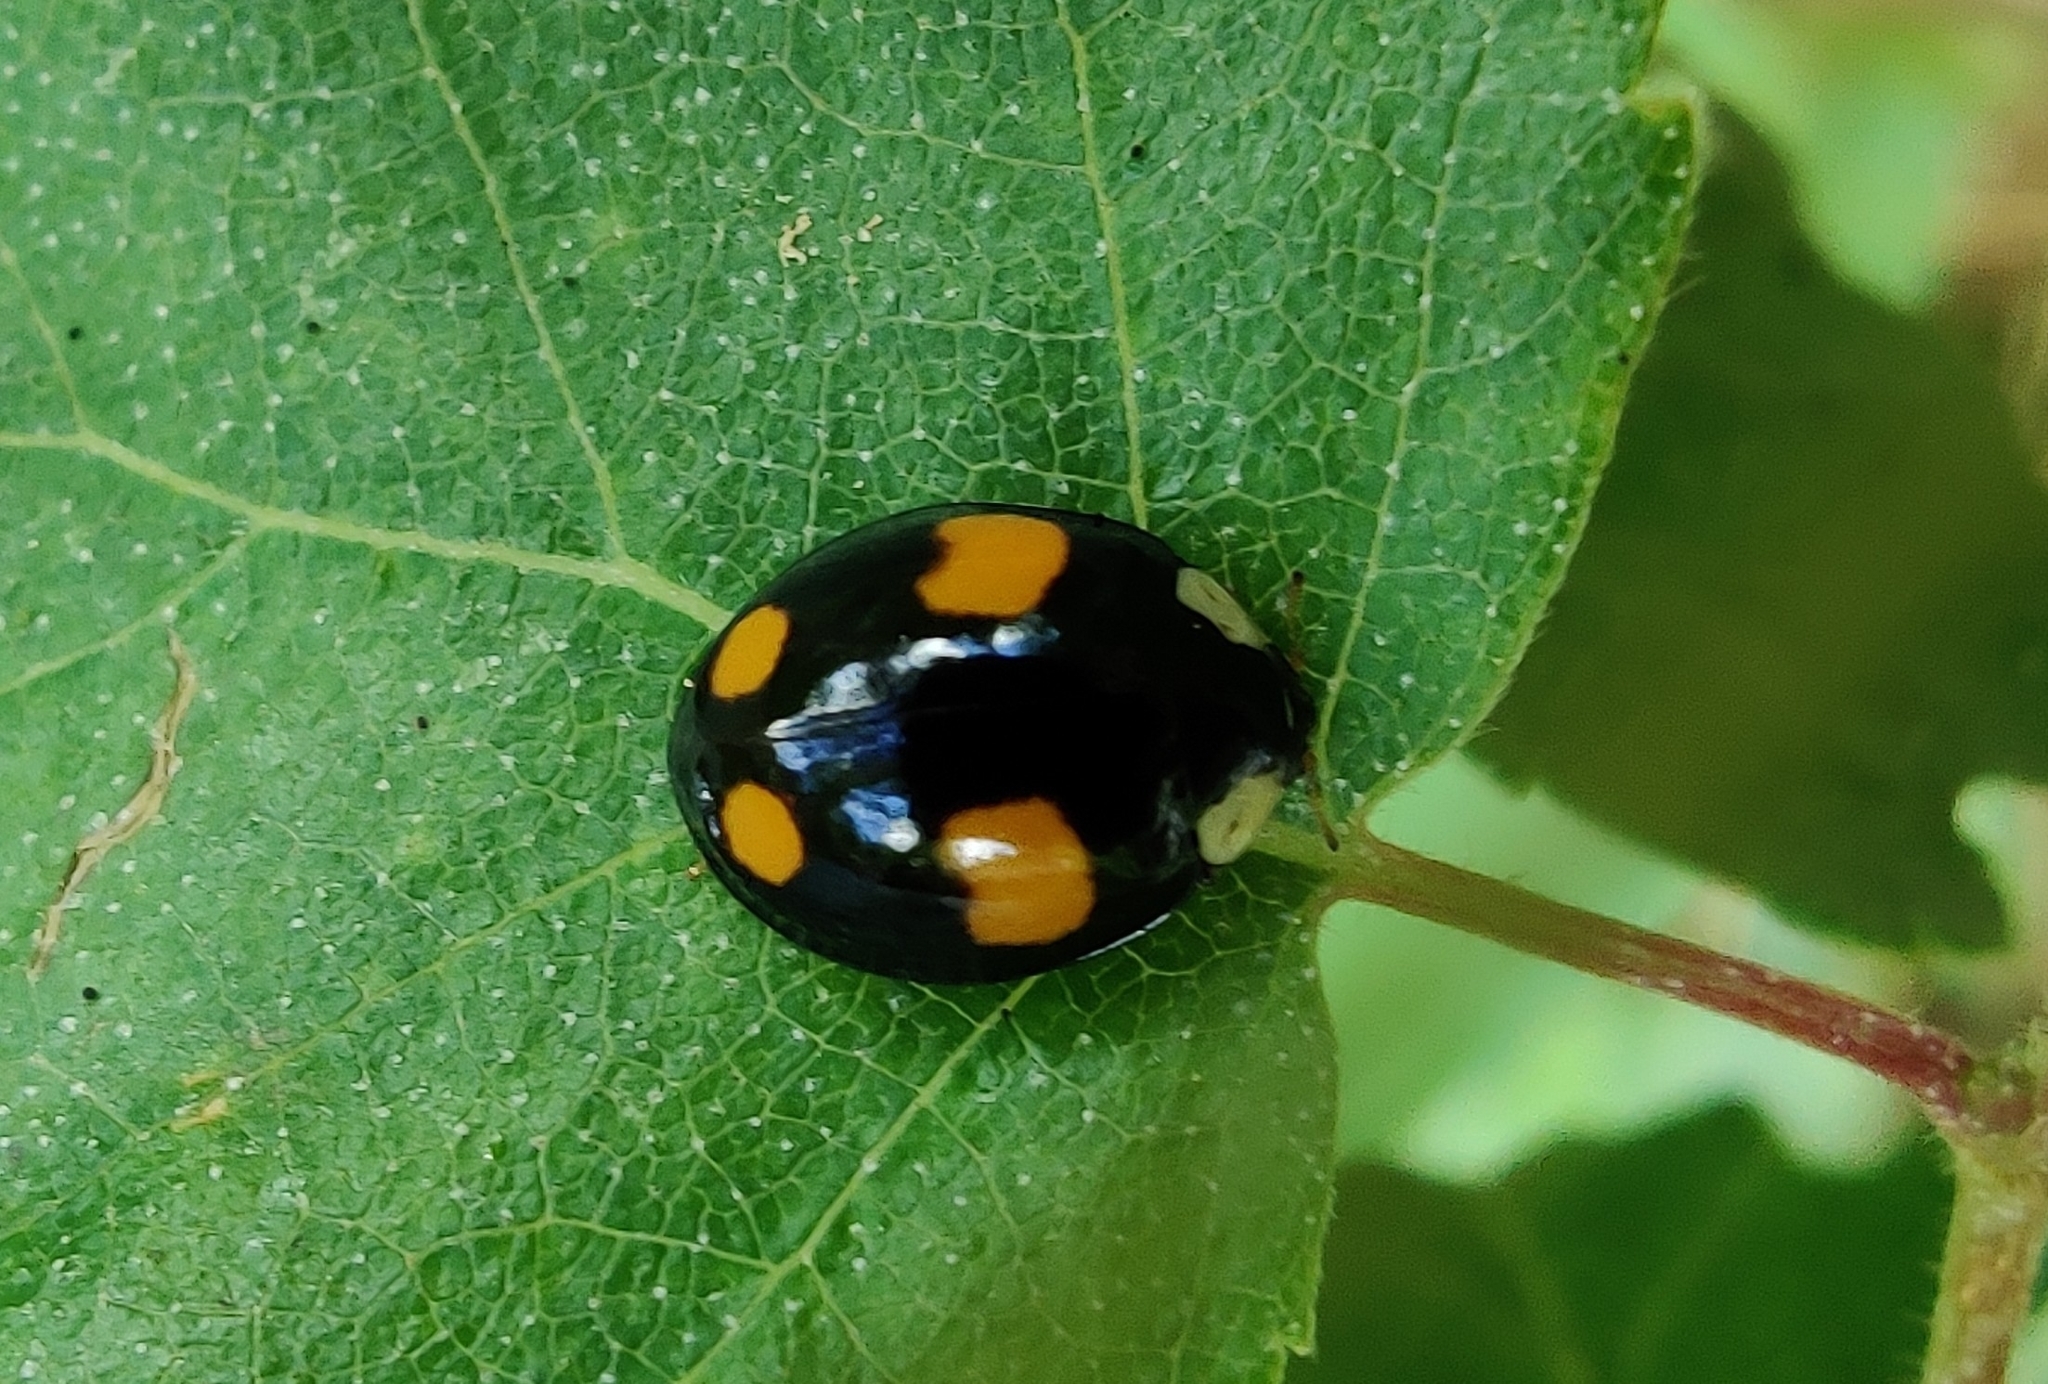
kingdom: Animalia
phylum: Arthropoda
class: Insecta
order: Coleoptera
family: Coccinellidae
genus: Harmonia
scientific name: Harmonia axyridis
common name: Harlequin ladybird
